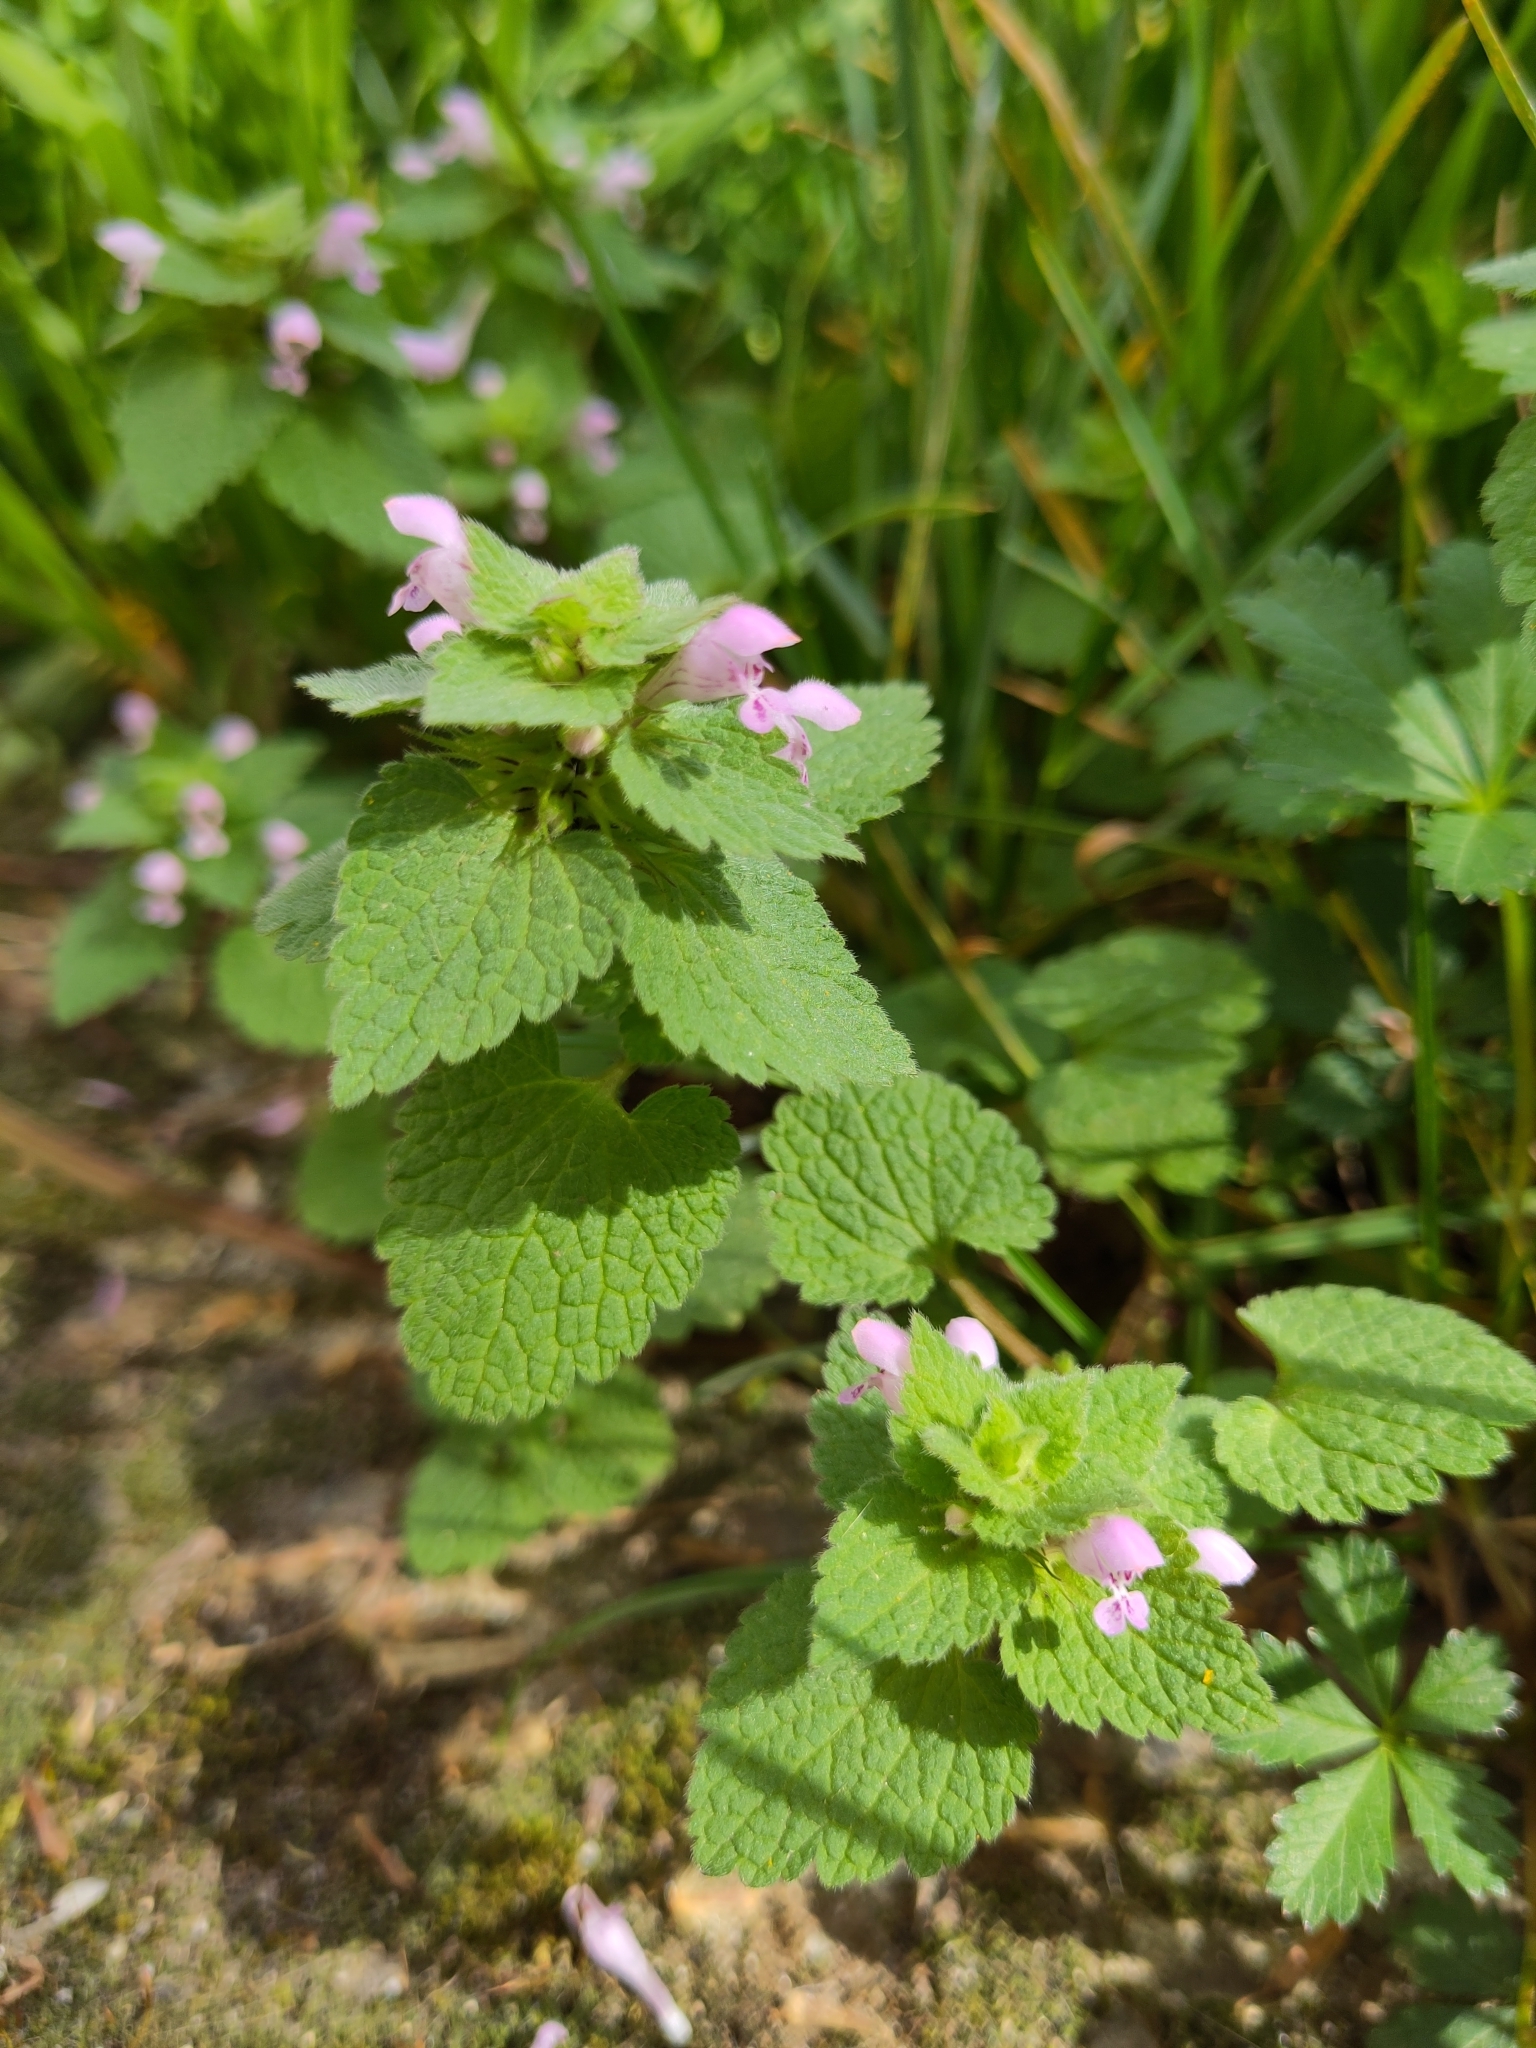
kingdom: Plantae
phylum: Tracheophyta
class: Magnoliopsida
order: Lamiales
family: Lamiaceae
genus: Lamium
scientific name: Lamium purpureum
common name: Red dead-nettle
